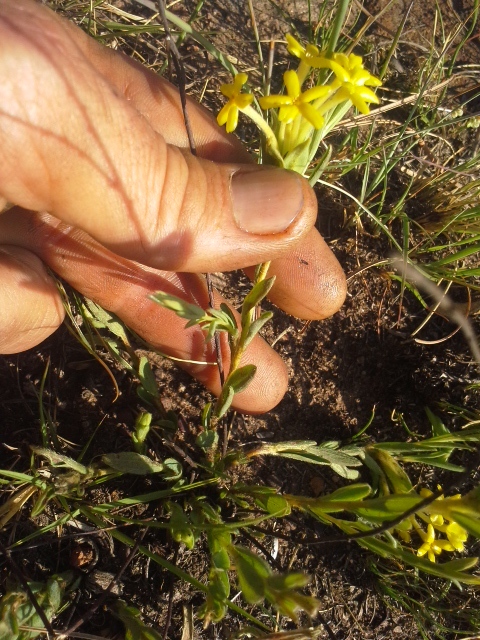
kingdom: Plantae
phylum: Tracheophyta
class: Magnoliopsida
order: Malvales
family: Thymelaeaceae
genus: Gnidia
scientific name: Gnidia caffra
